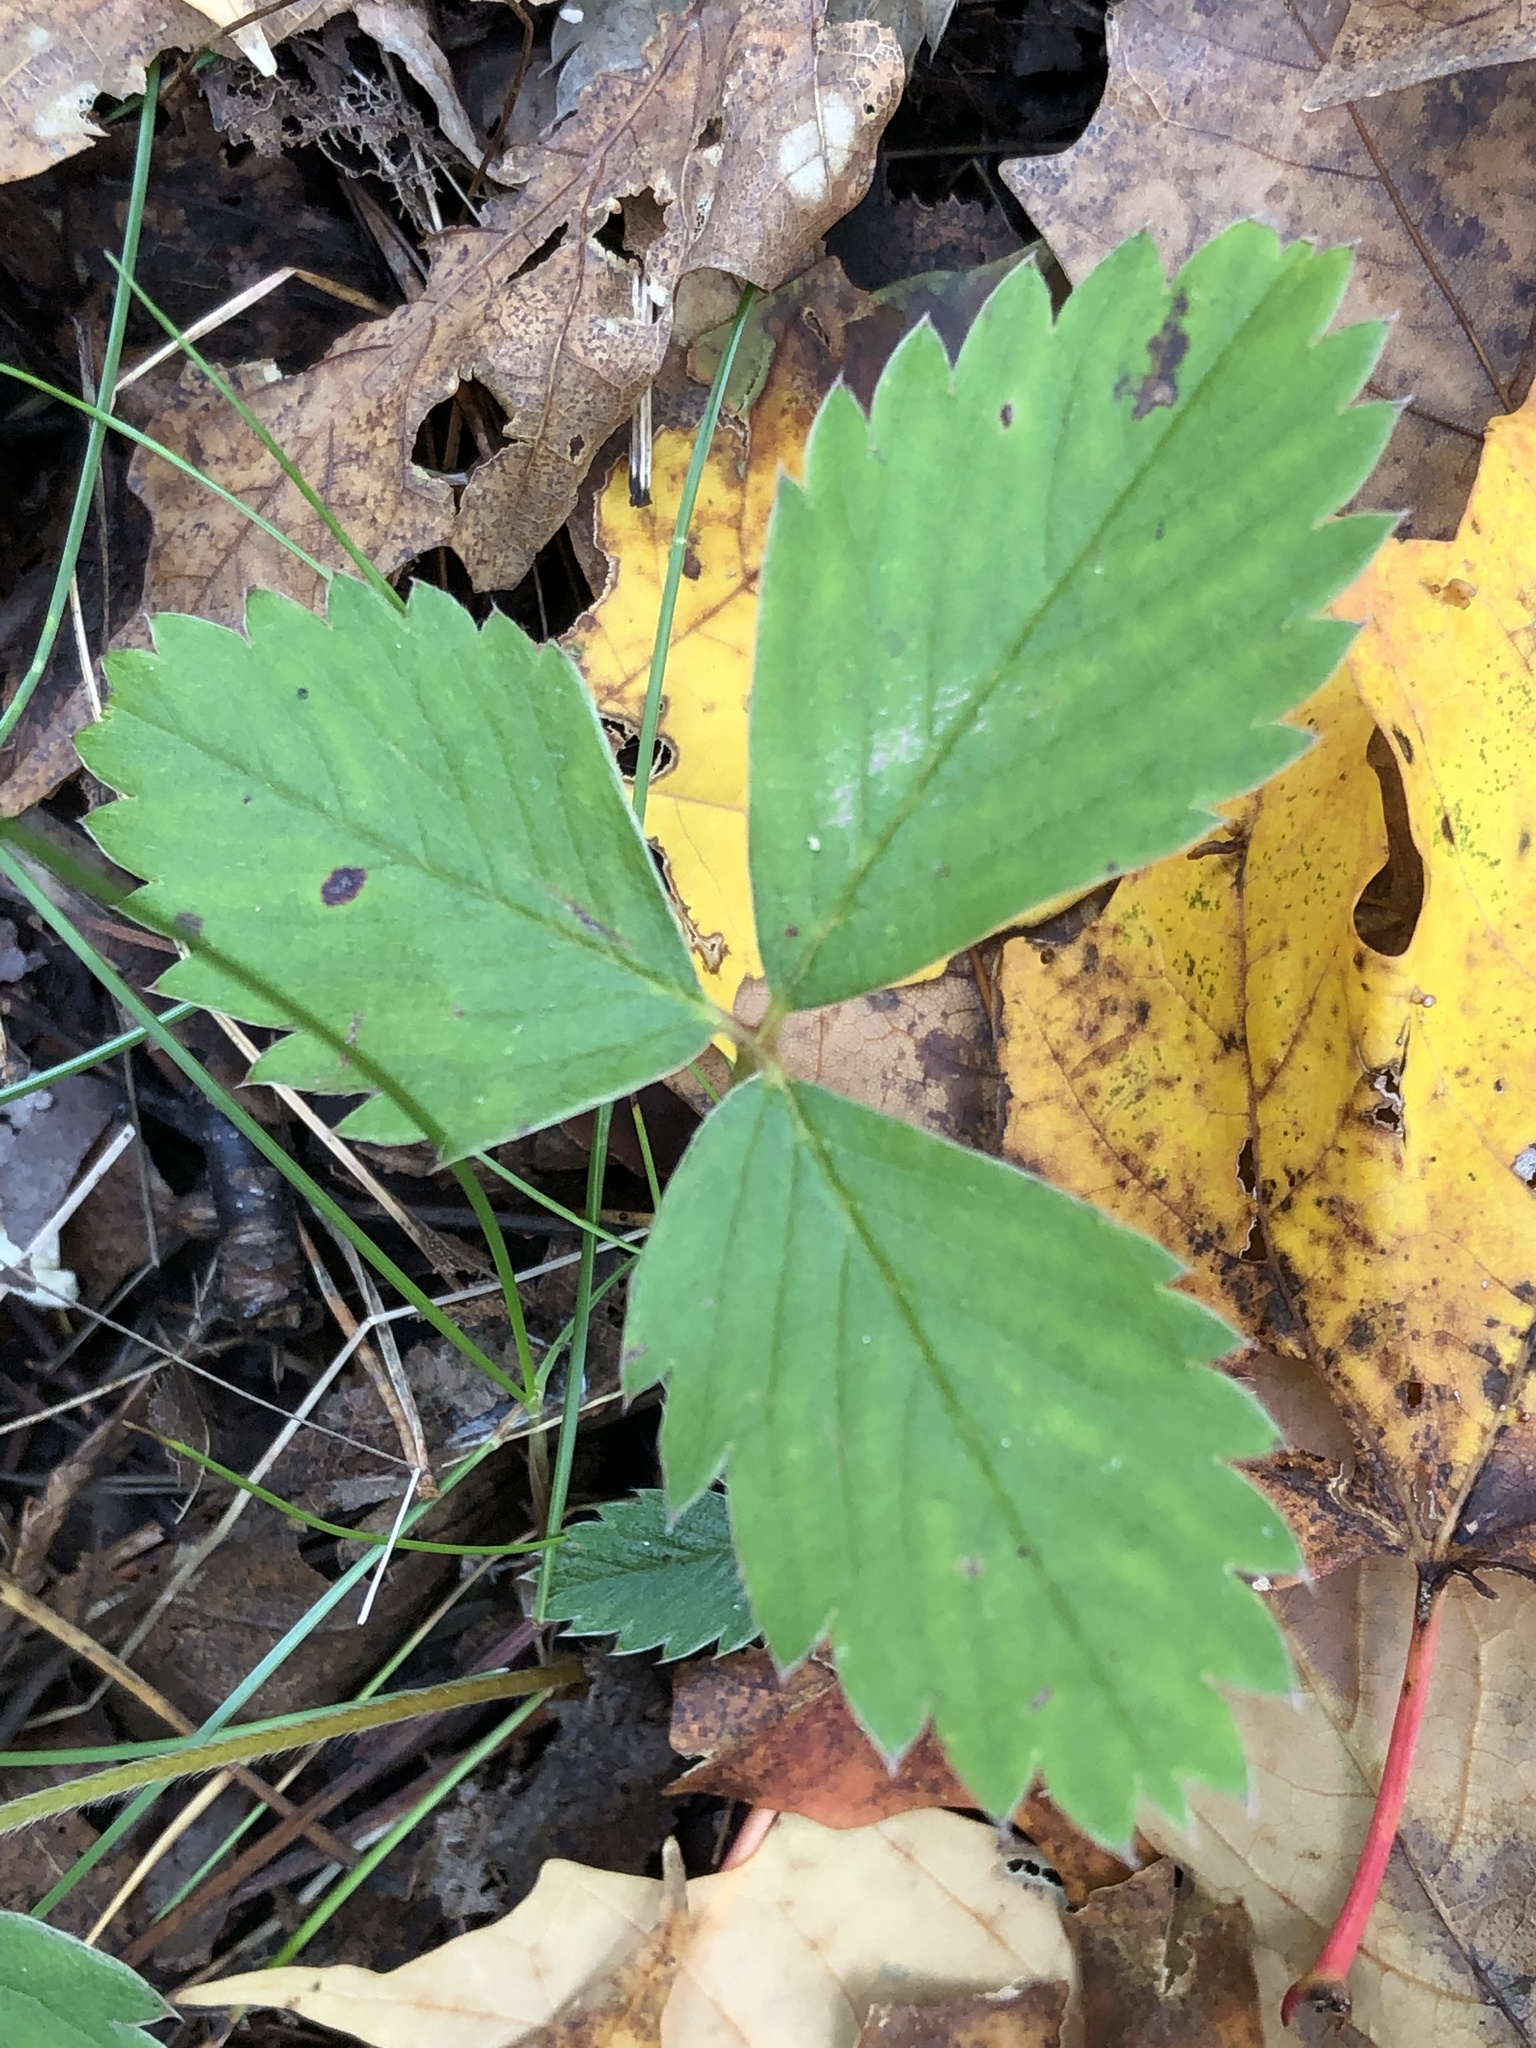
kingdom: Plantae
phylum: Tracheophyta
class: Magnoliopsida
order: Rosales
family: Rosaceae
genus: Fragaria
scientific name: Fragaria virginiana
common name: Thickleaved wild strawberry
